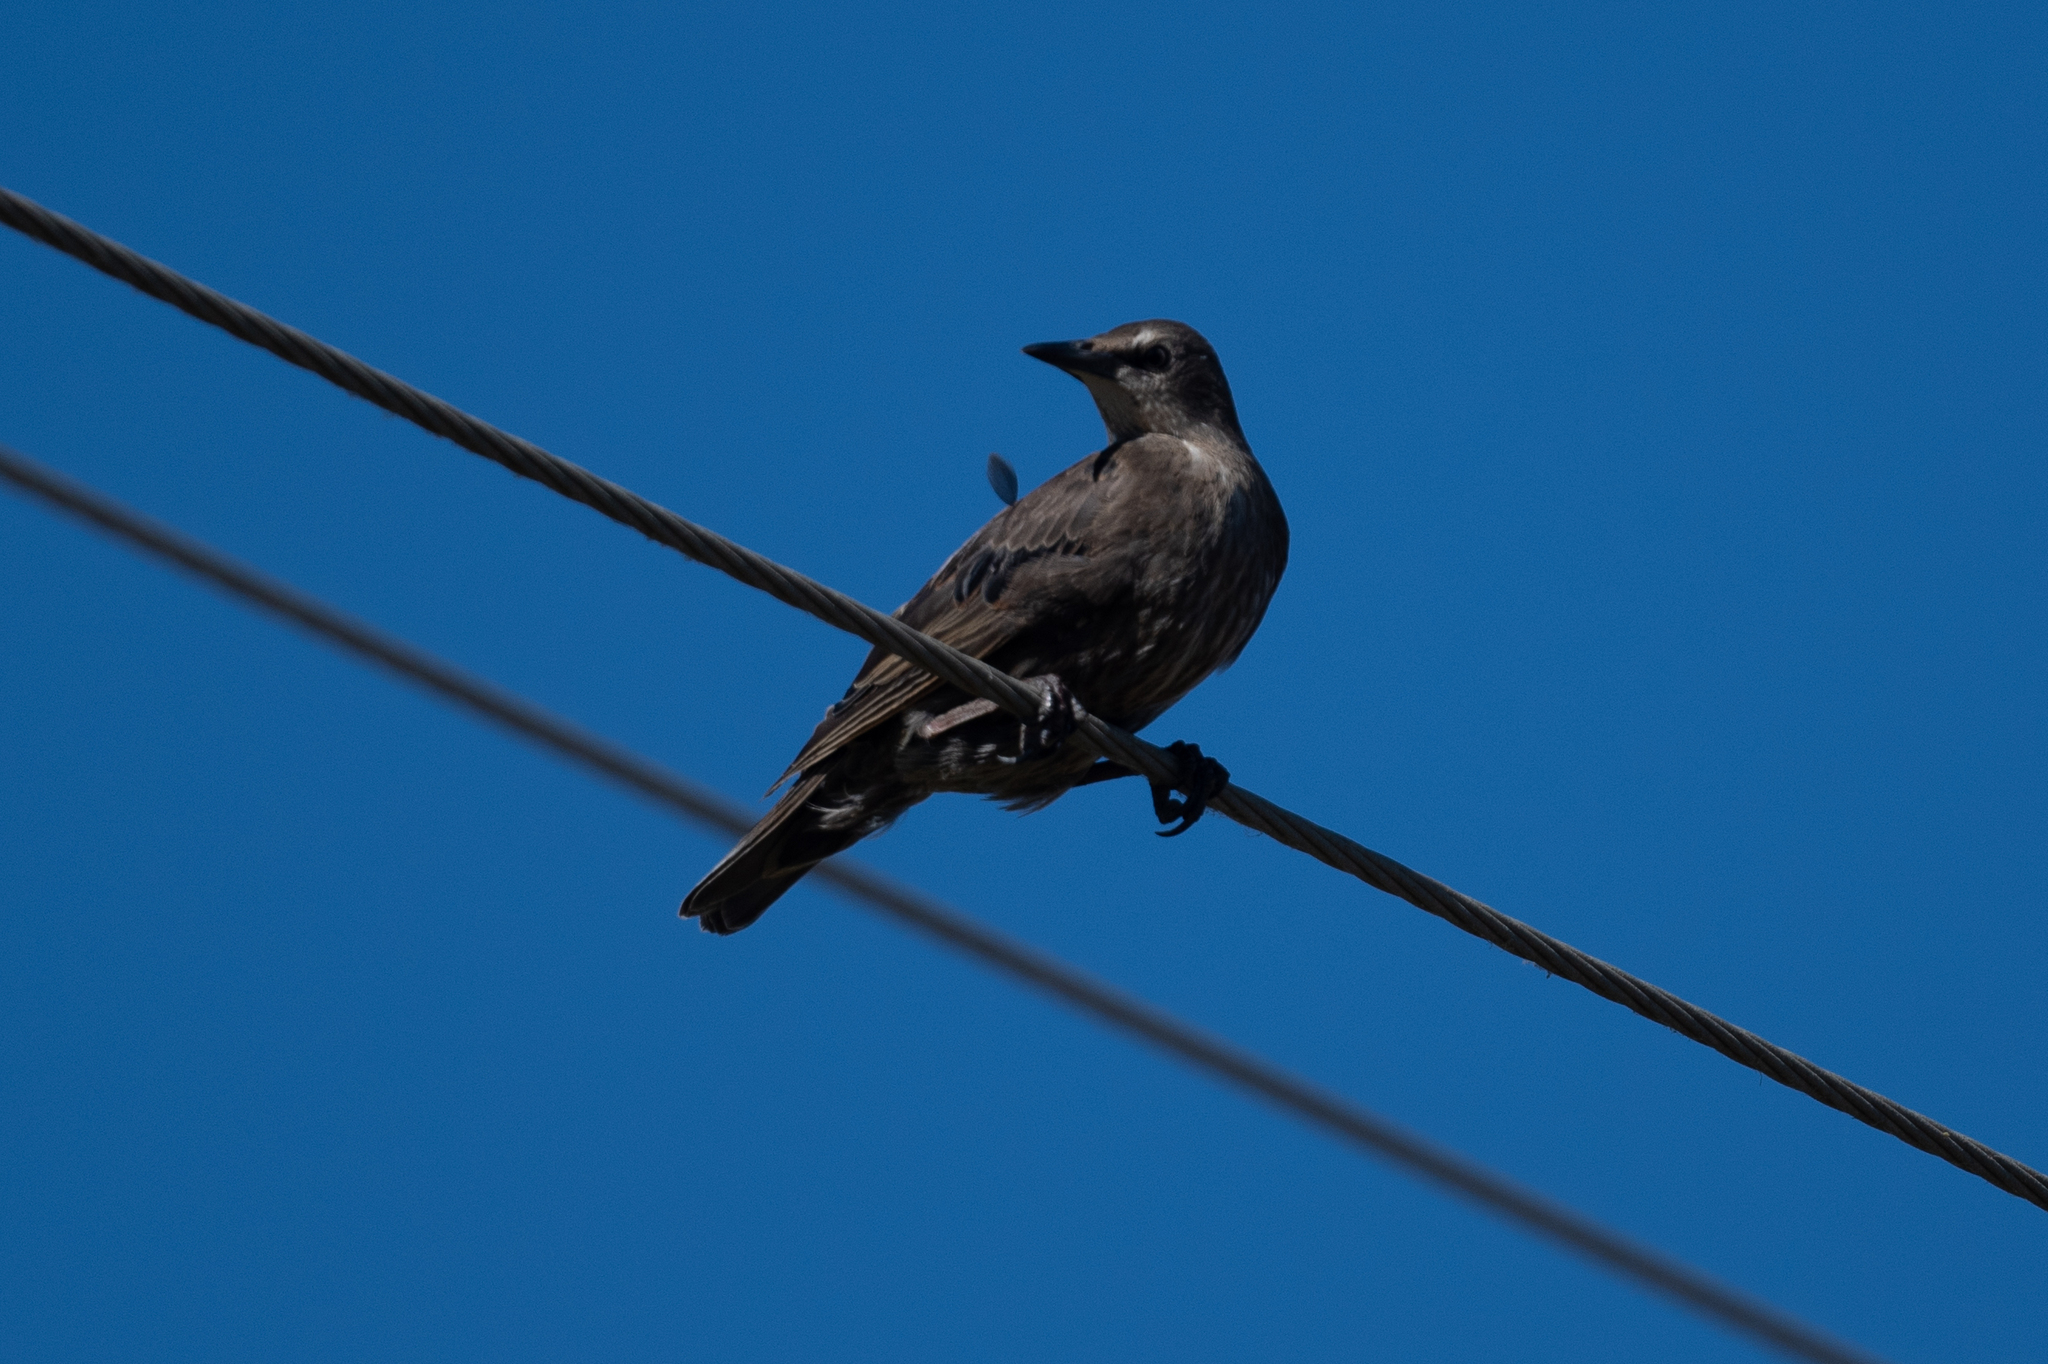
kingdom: Animalia
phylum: Chordata
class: Aves
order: Passeriformes
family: Sturnidae
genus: Sturnus
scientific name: Sturnus vulgaris
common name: Common starling
